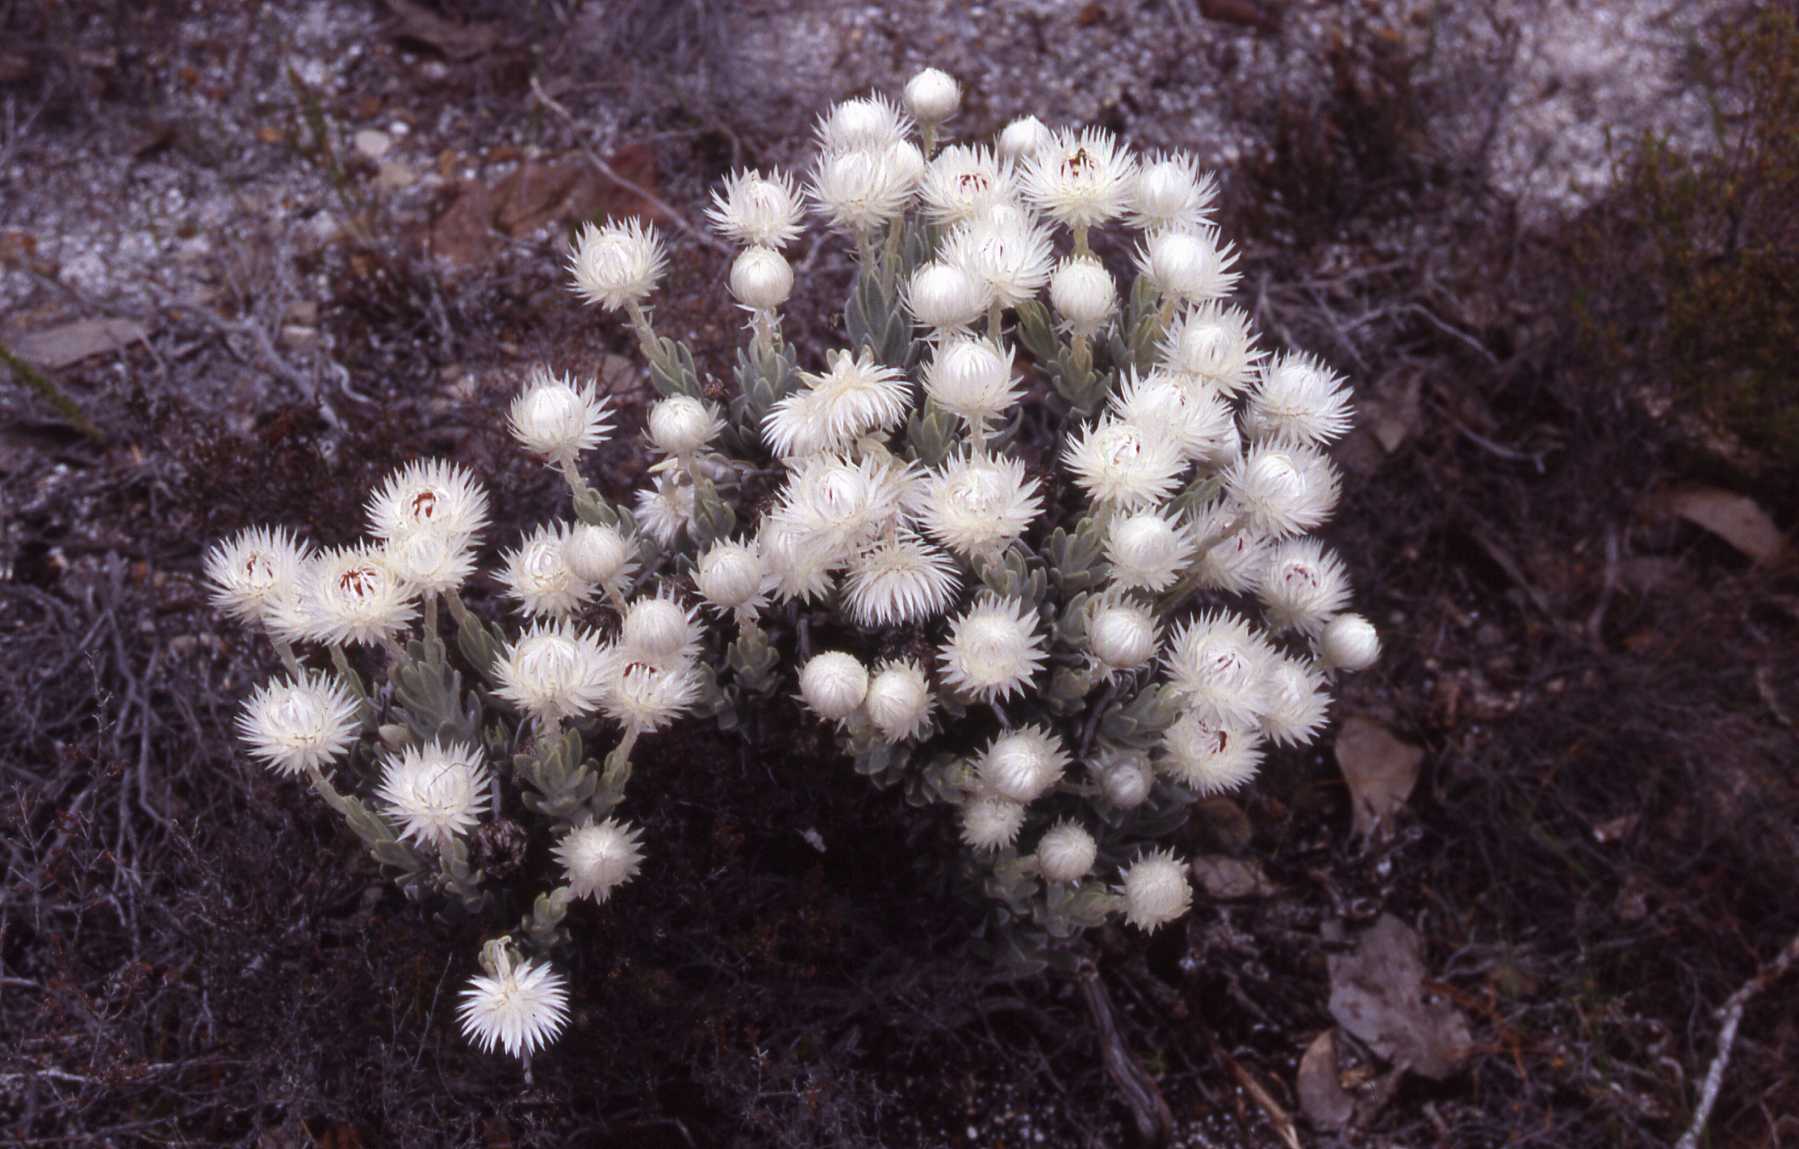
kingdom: Plantae
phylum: Tracheophyta
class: Magnoliopsida
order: Asterales
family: Asteraceae
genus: Syncarpha
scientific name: Syncarpha vestita
